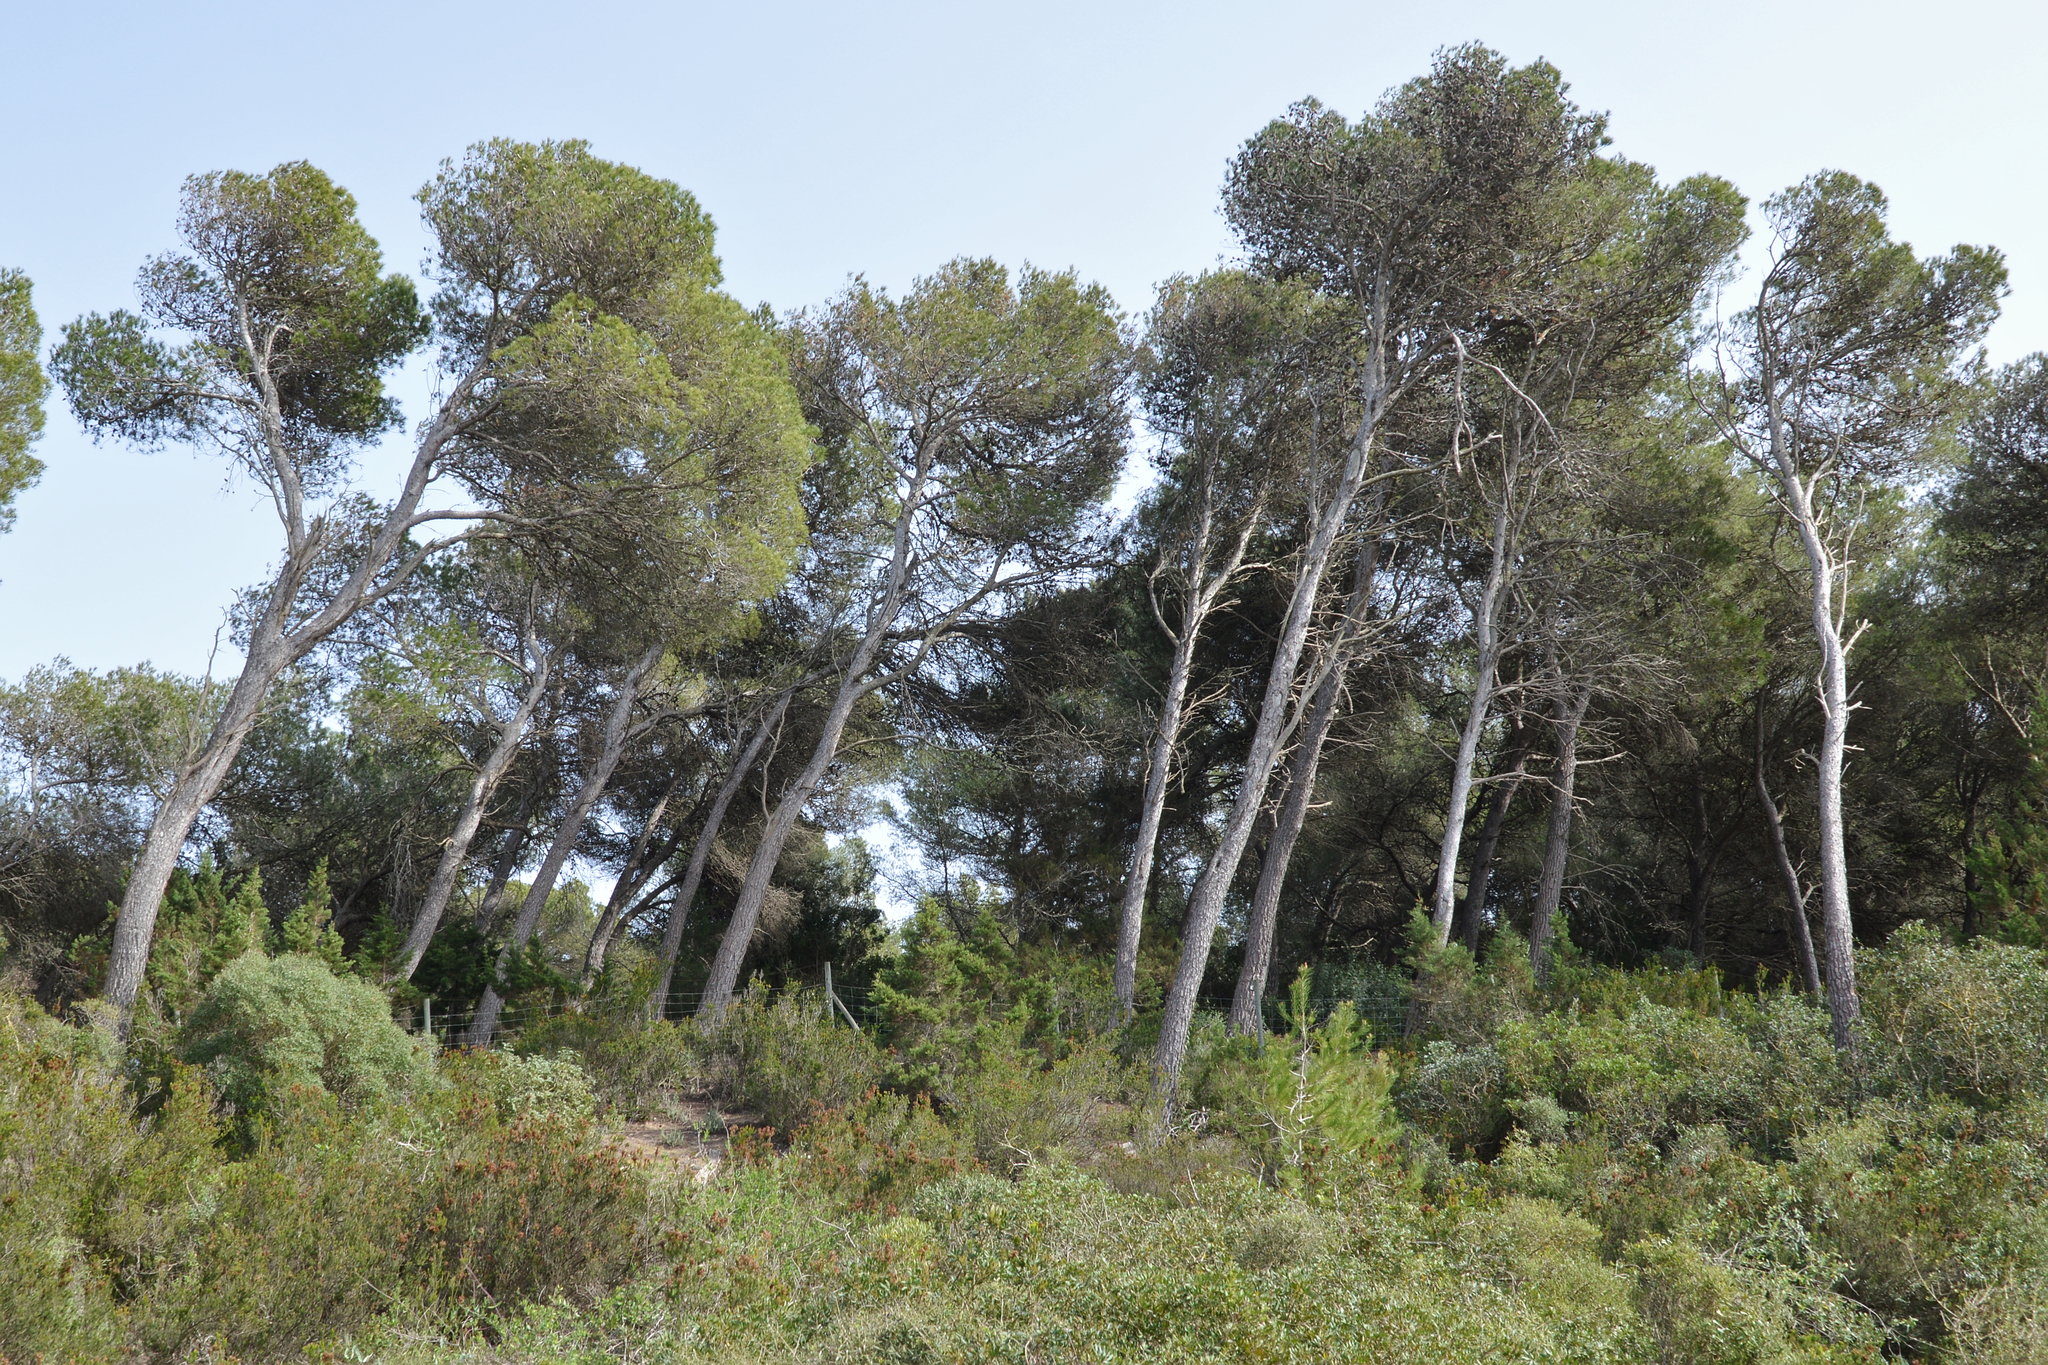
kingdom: Plantae
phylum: Tracheophyta
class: Pinopsida
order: Pinales
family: Pinaceae
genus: Pinus
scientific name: Pinus halepensis
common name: Aleppo pine
